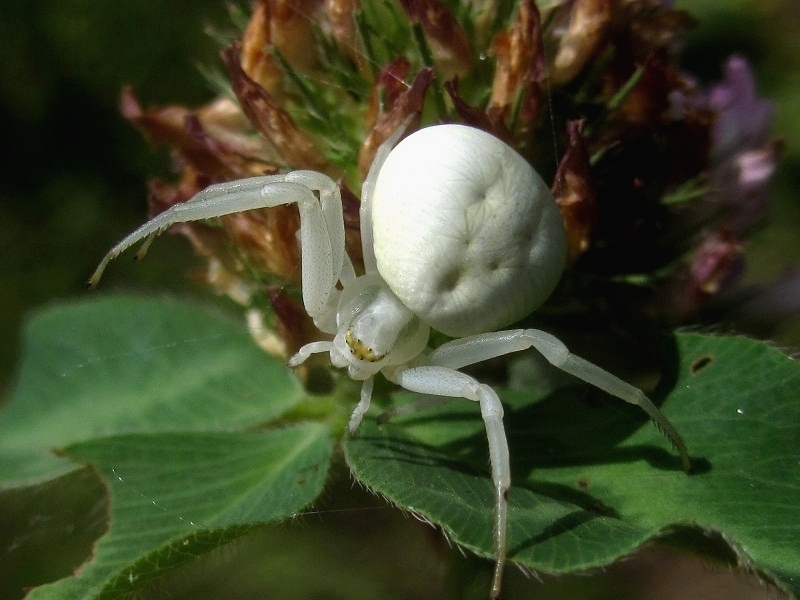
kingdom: Animalia
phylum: Arthropoda
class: Arachnida
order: Araneae
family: Thomisidae
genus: Misumena
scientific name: Misumena vatia
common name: Goldenrod crab spider
